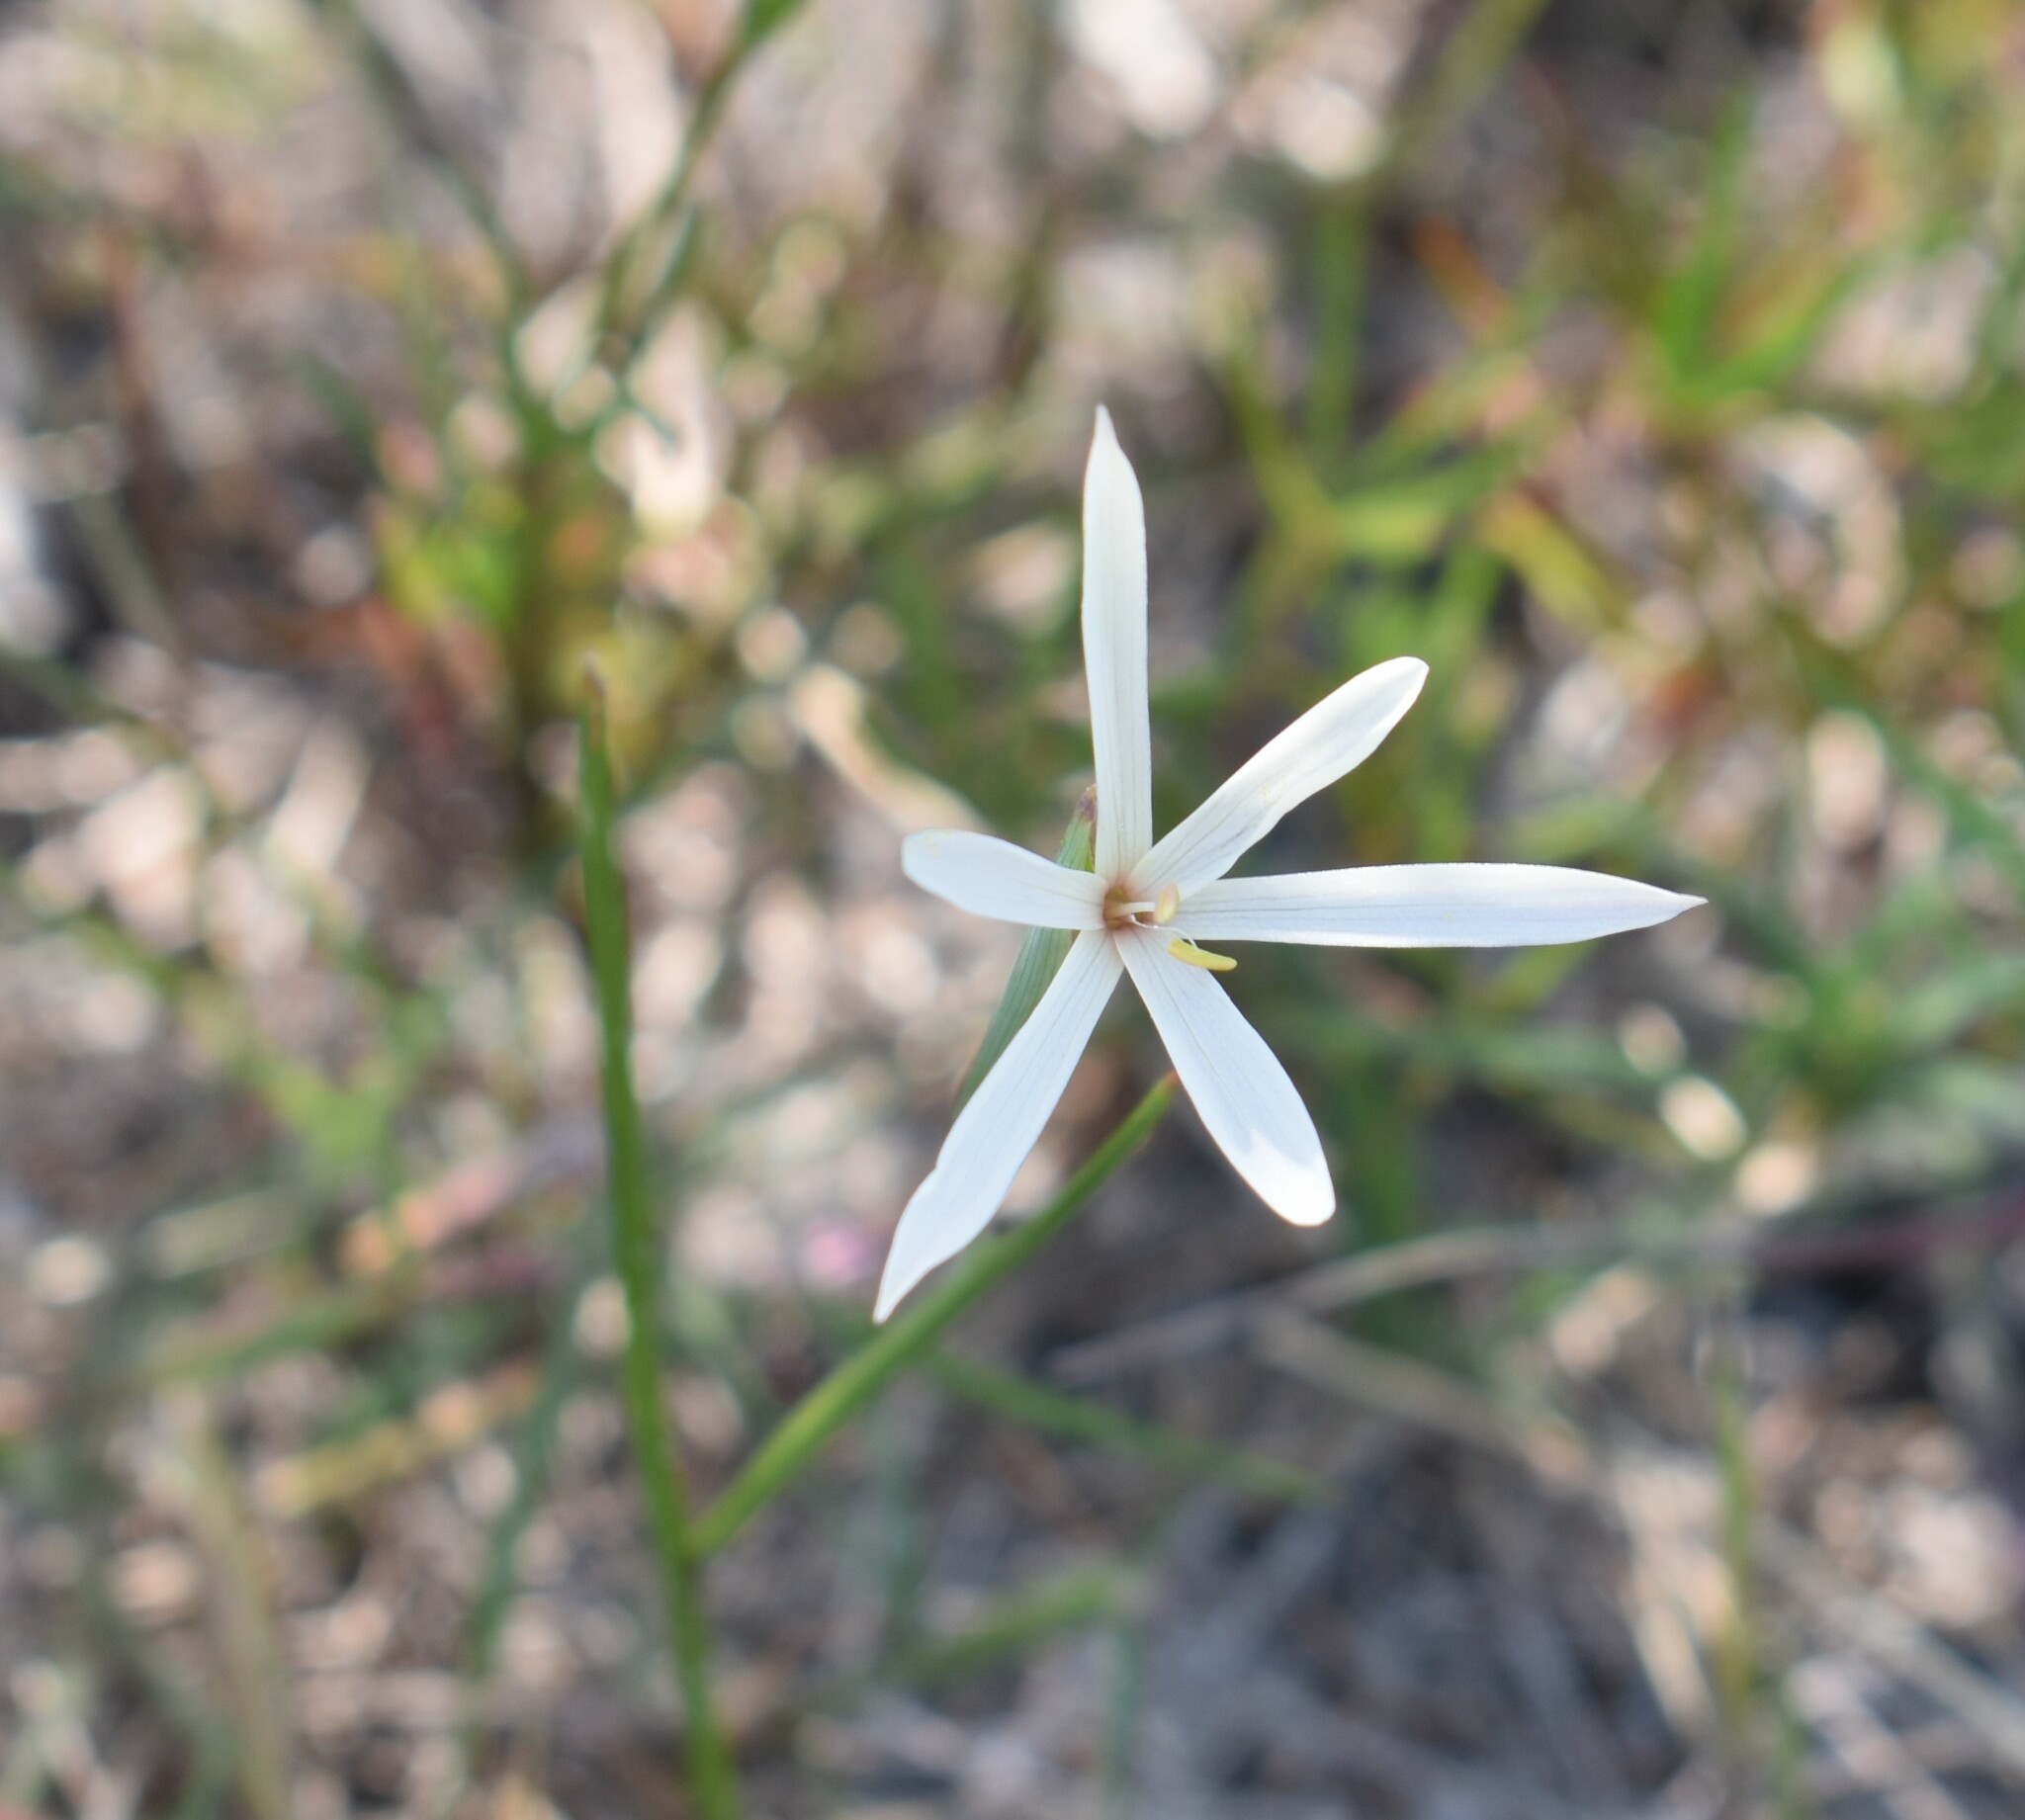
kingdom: Plantae
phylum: Tracheophyta
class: Liliopsida
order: Asparagales
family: Iridaceae
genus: Geissorhiza
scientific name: Geissorhiza tenella
